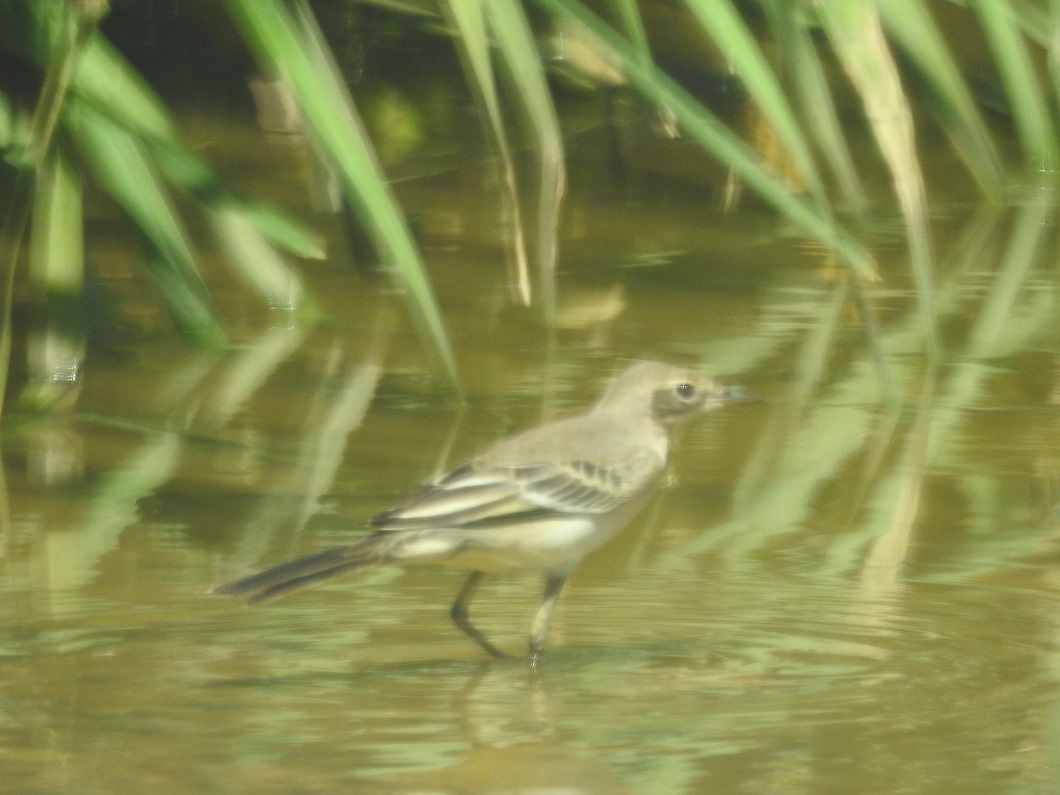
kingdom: Animalia
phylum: Chordata
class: Aves
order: Passeriformes
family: Motacillidae
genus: Motacilla
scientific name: Motacilla flava
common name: Western yellow wagtail
